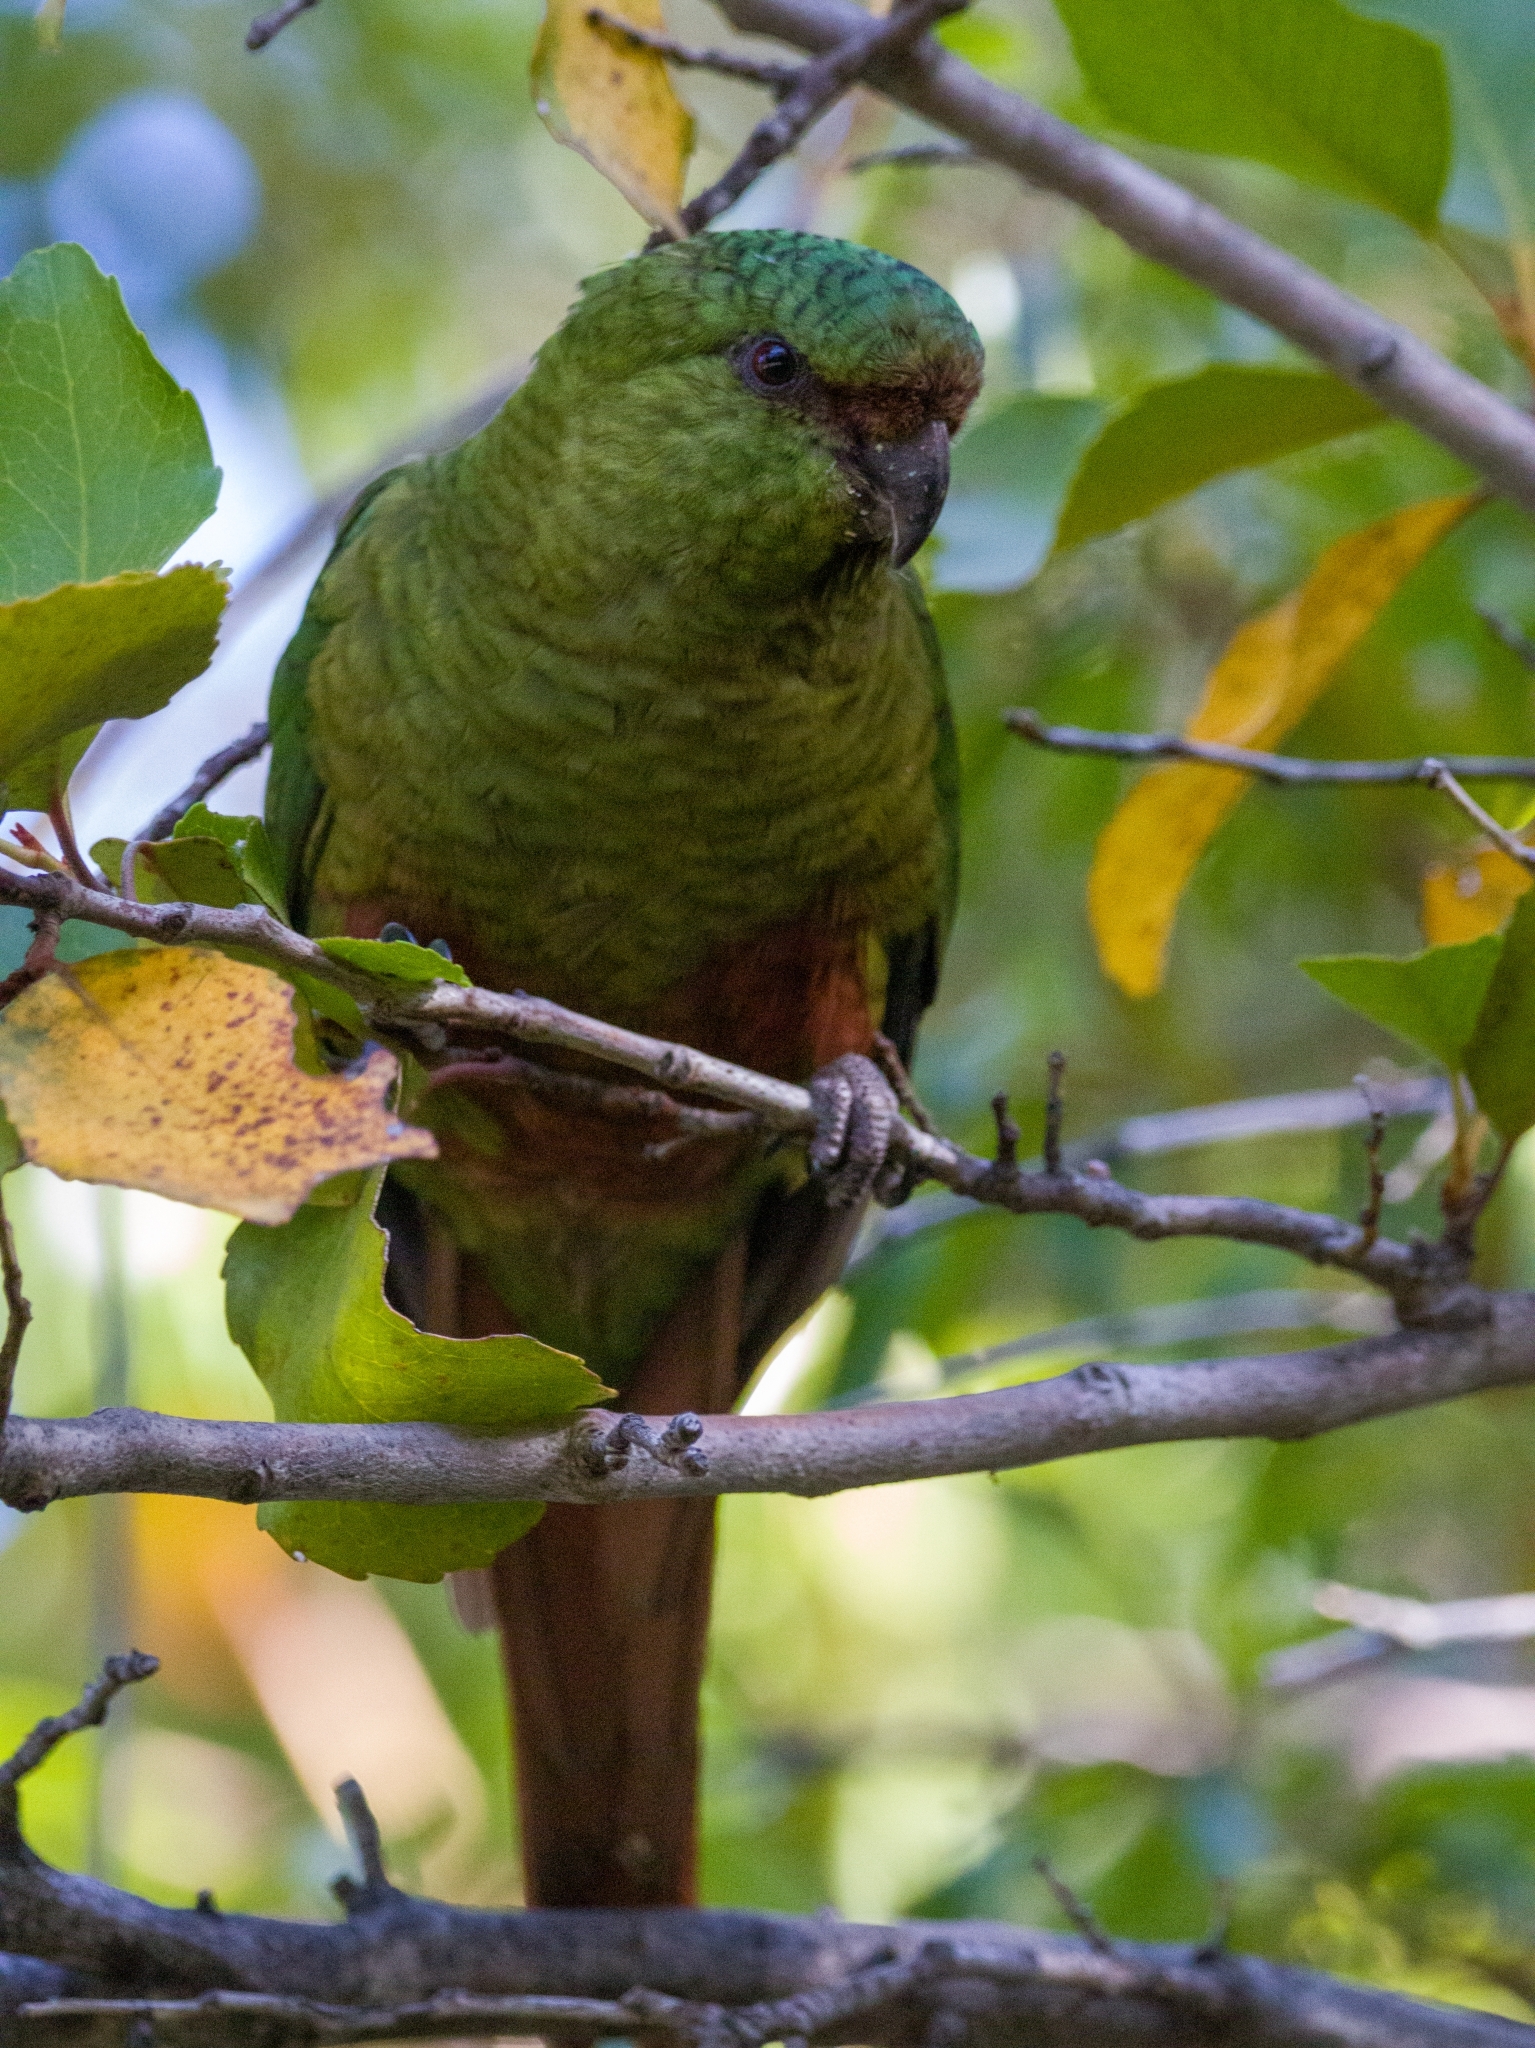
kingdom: Animalia
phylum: Chordata
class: Aves
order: Psittaciformes
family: Psittacidae
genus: Enicognathus
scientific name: Enicognathus ferrugineus
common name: Austral parakeet
